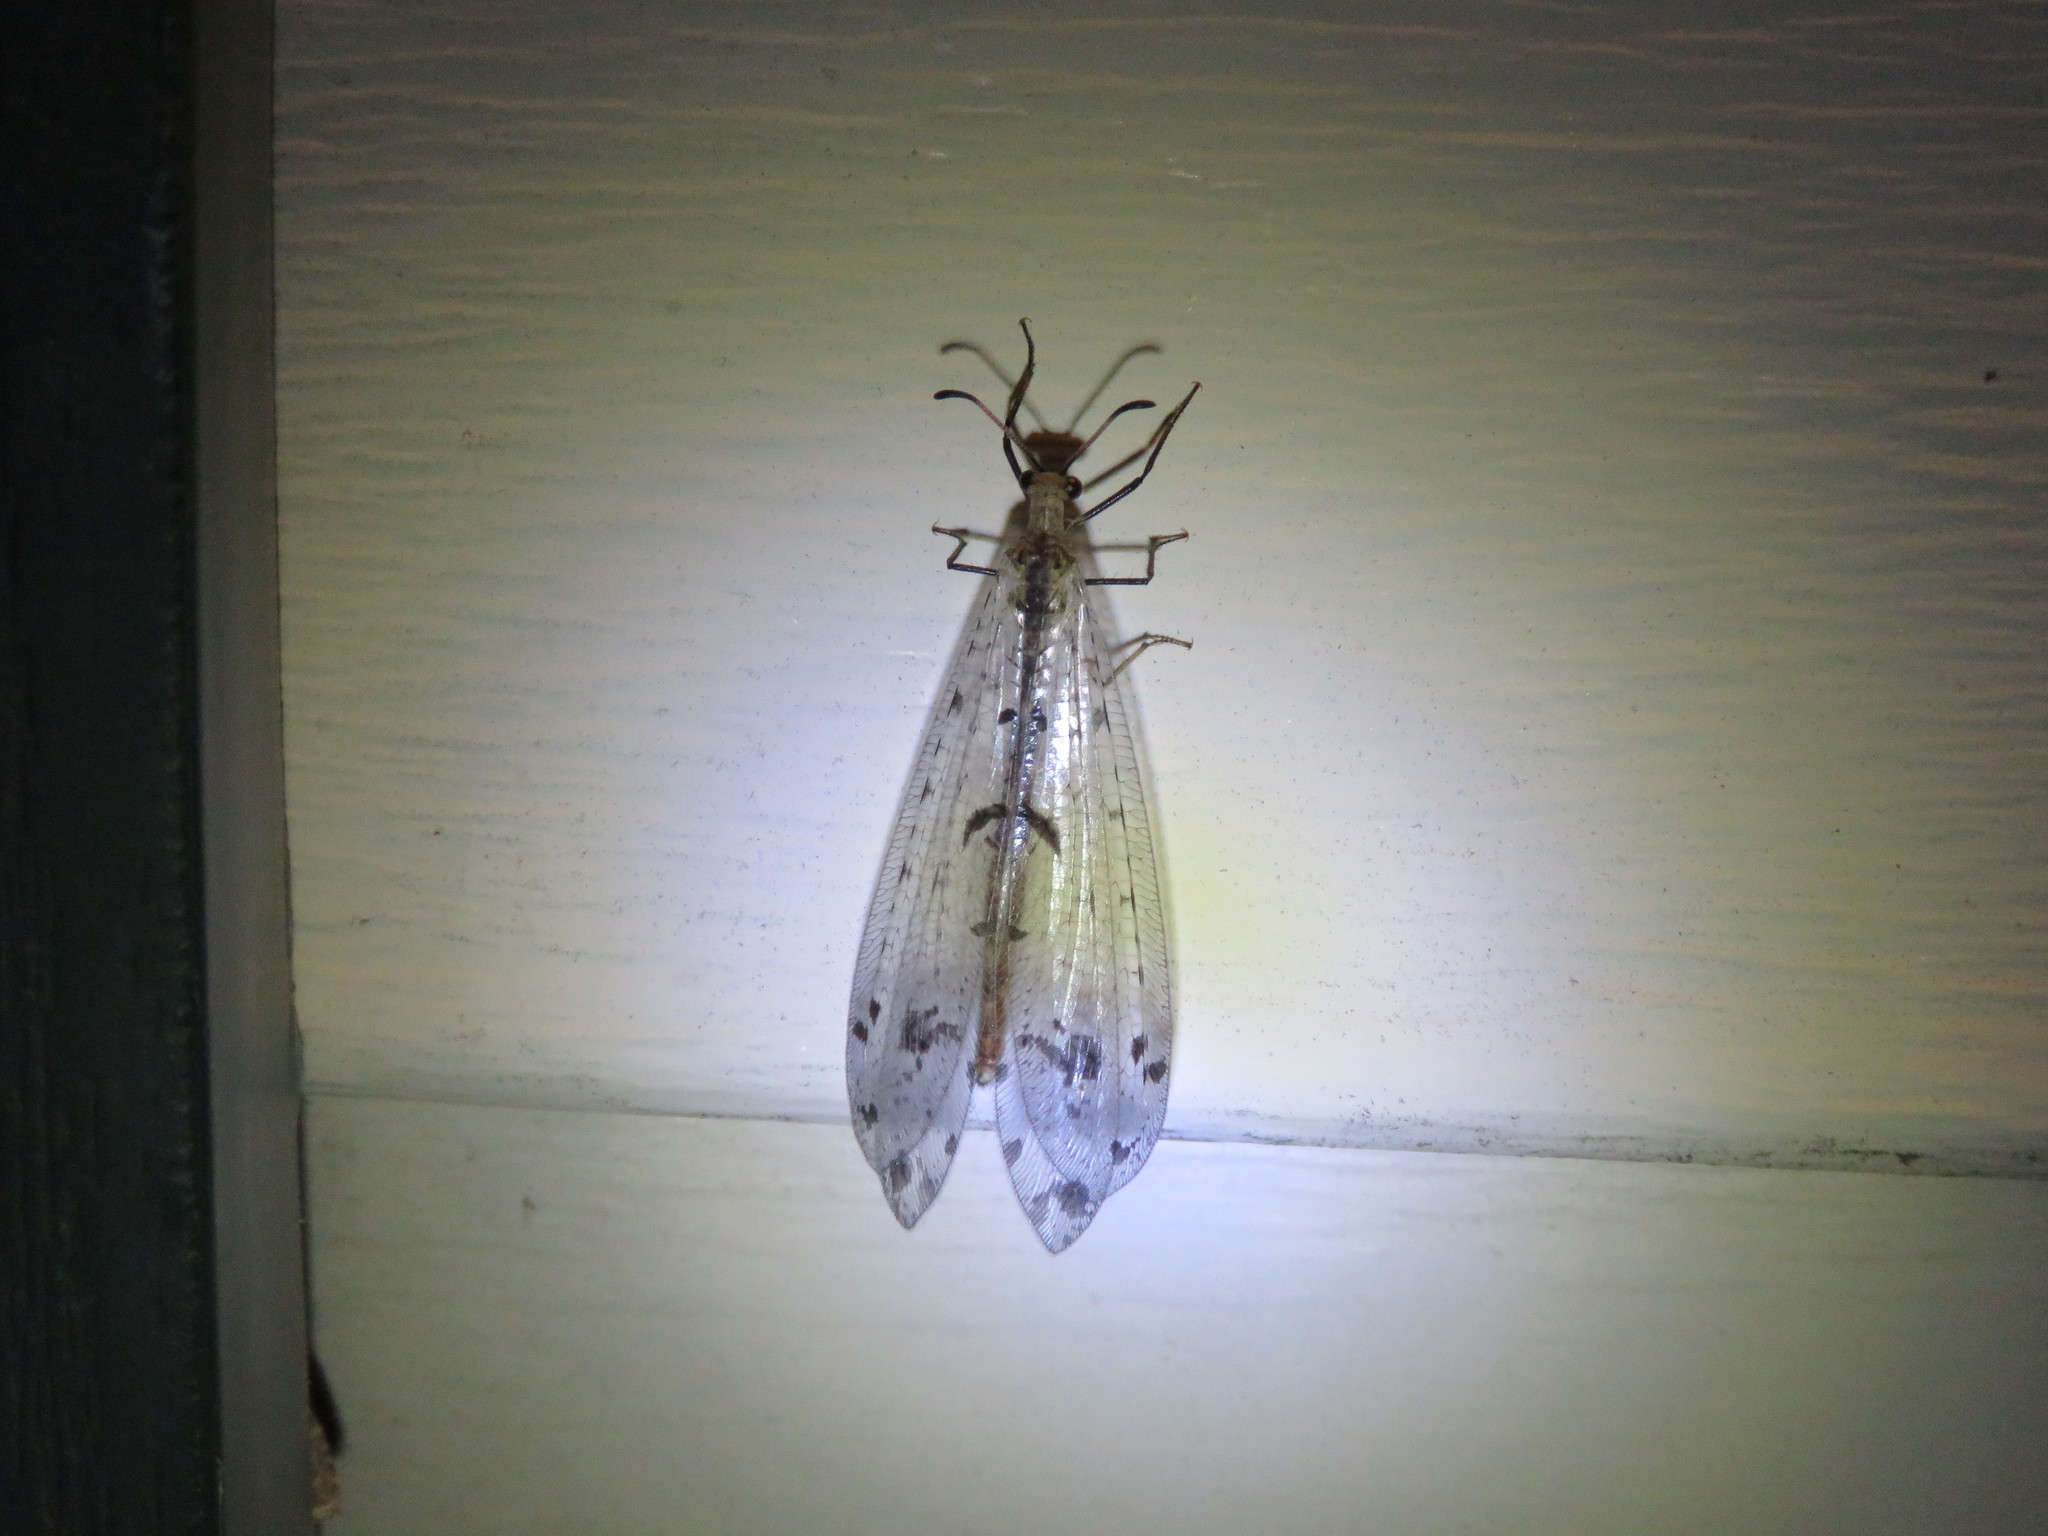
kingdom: Animalia
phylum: Arthropoda
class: Insecta
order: Neuroptera
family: Myrmeleontidae
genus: Dendroleon
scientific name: Dendroleon obsoletus
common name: Eastern spotted-winged antlion
